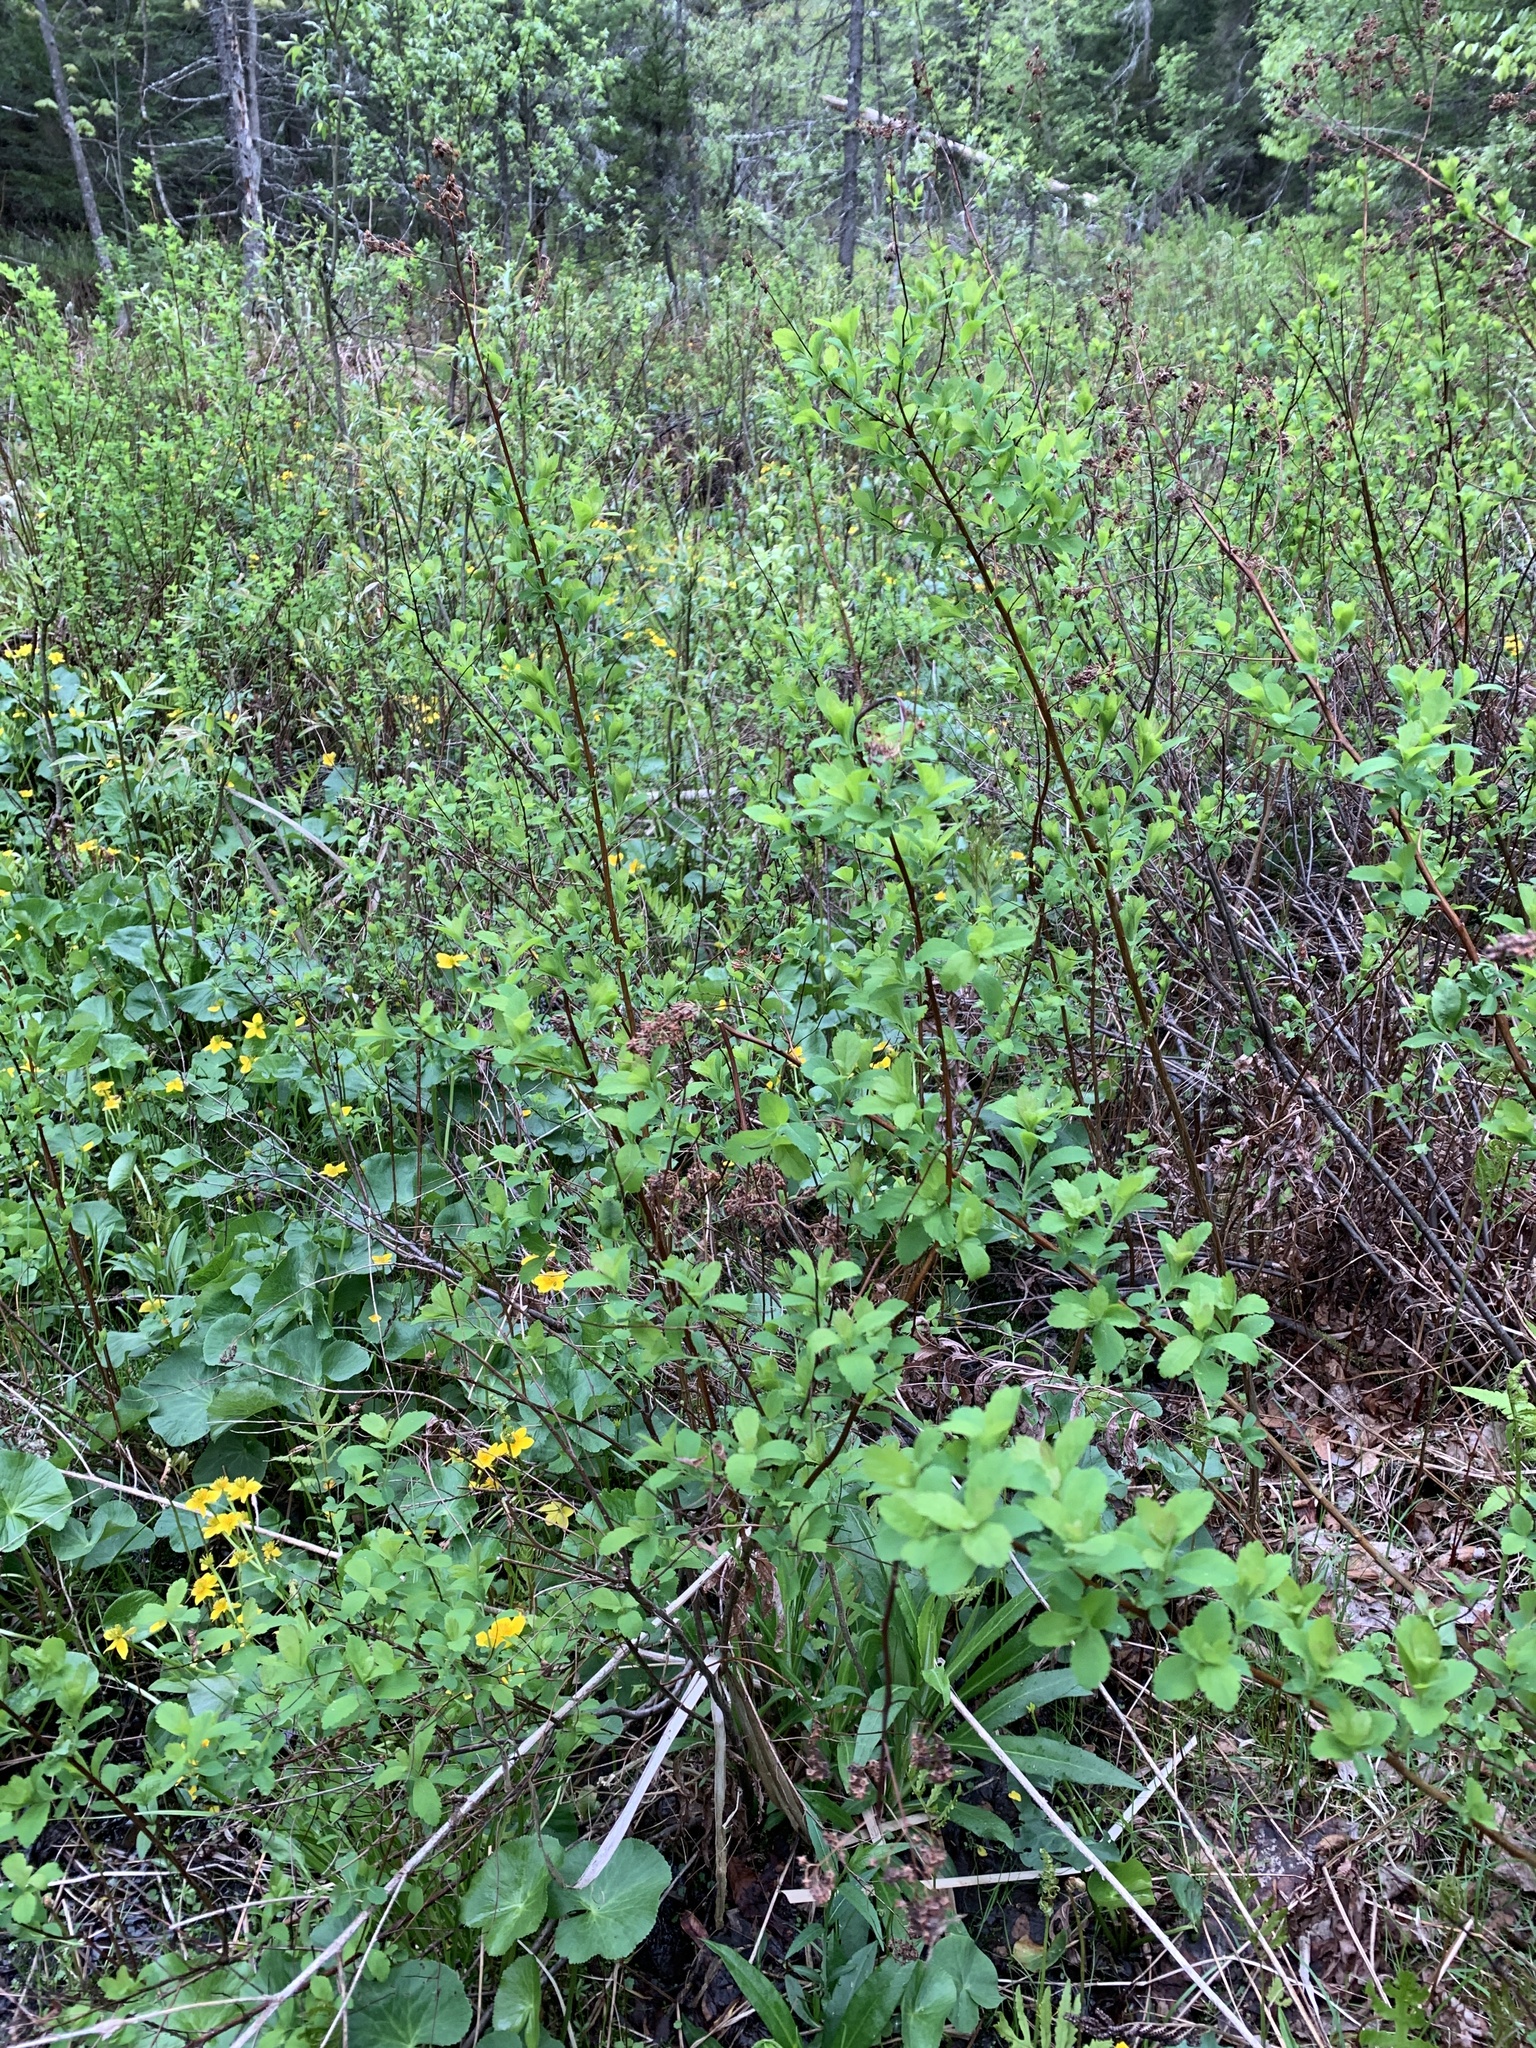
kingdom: Plantae
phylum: Tracheophyta
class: Magnoliopsida
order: Rosales
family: Rosaceae
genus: Spiraea
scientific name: Spiraea alba
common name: Pale bridewort
